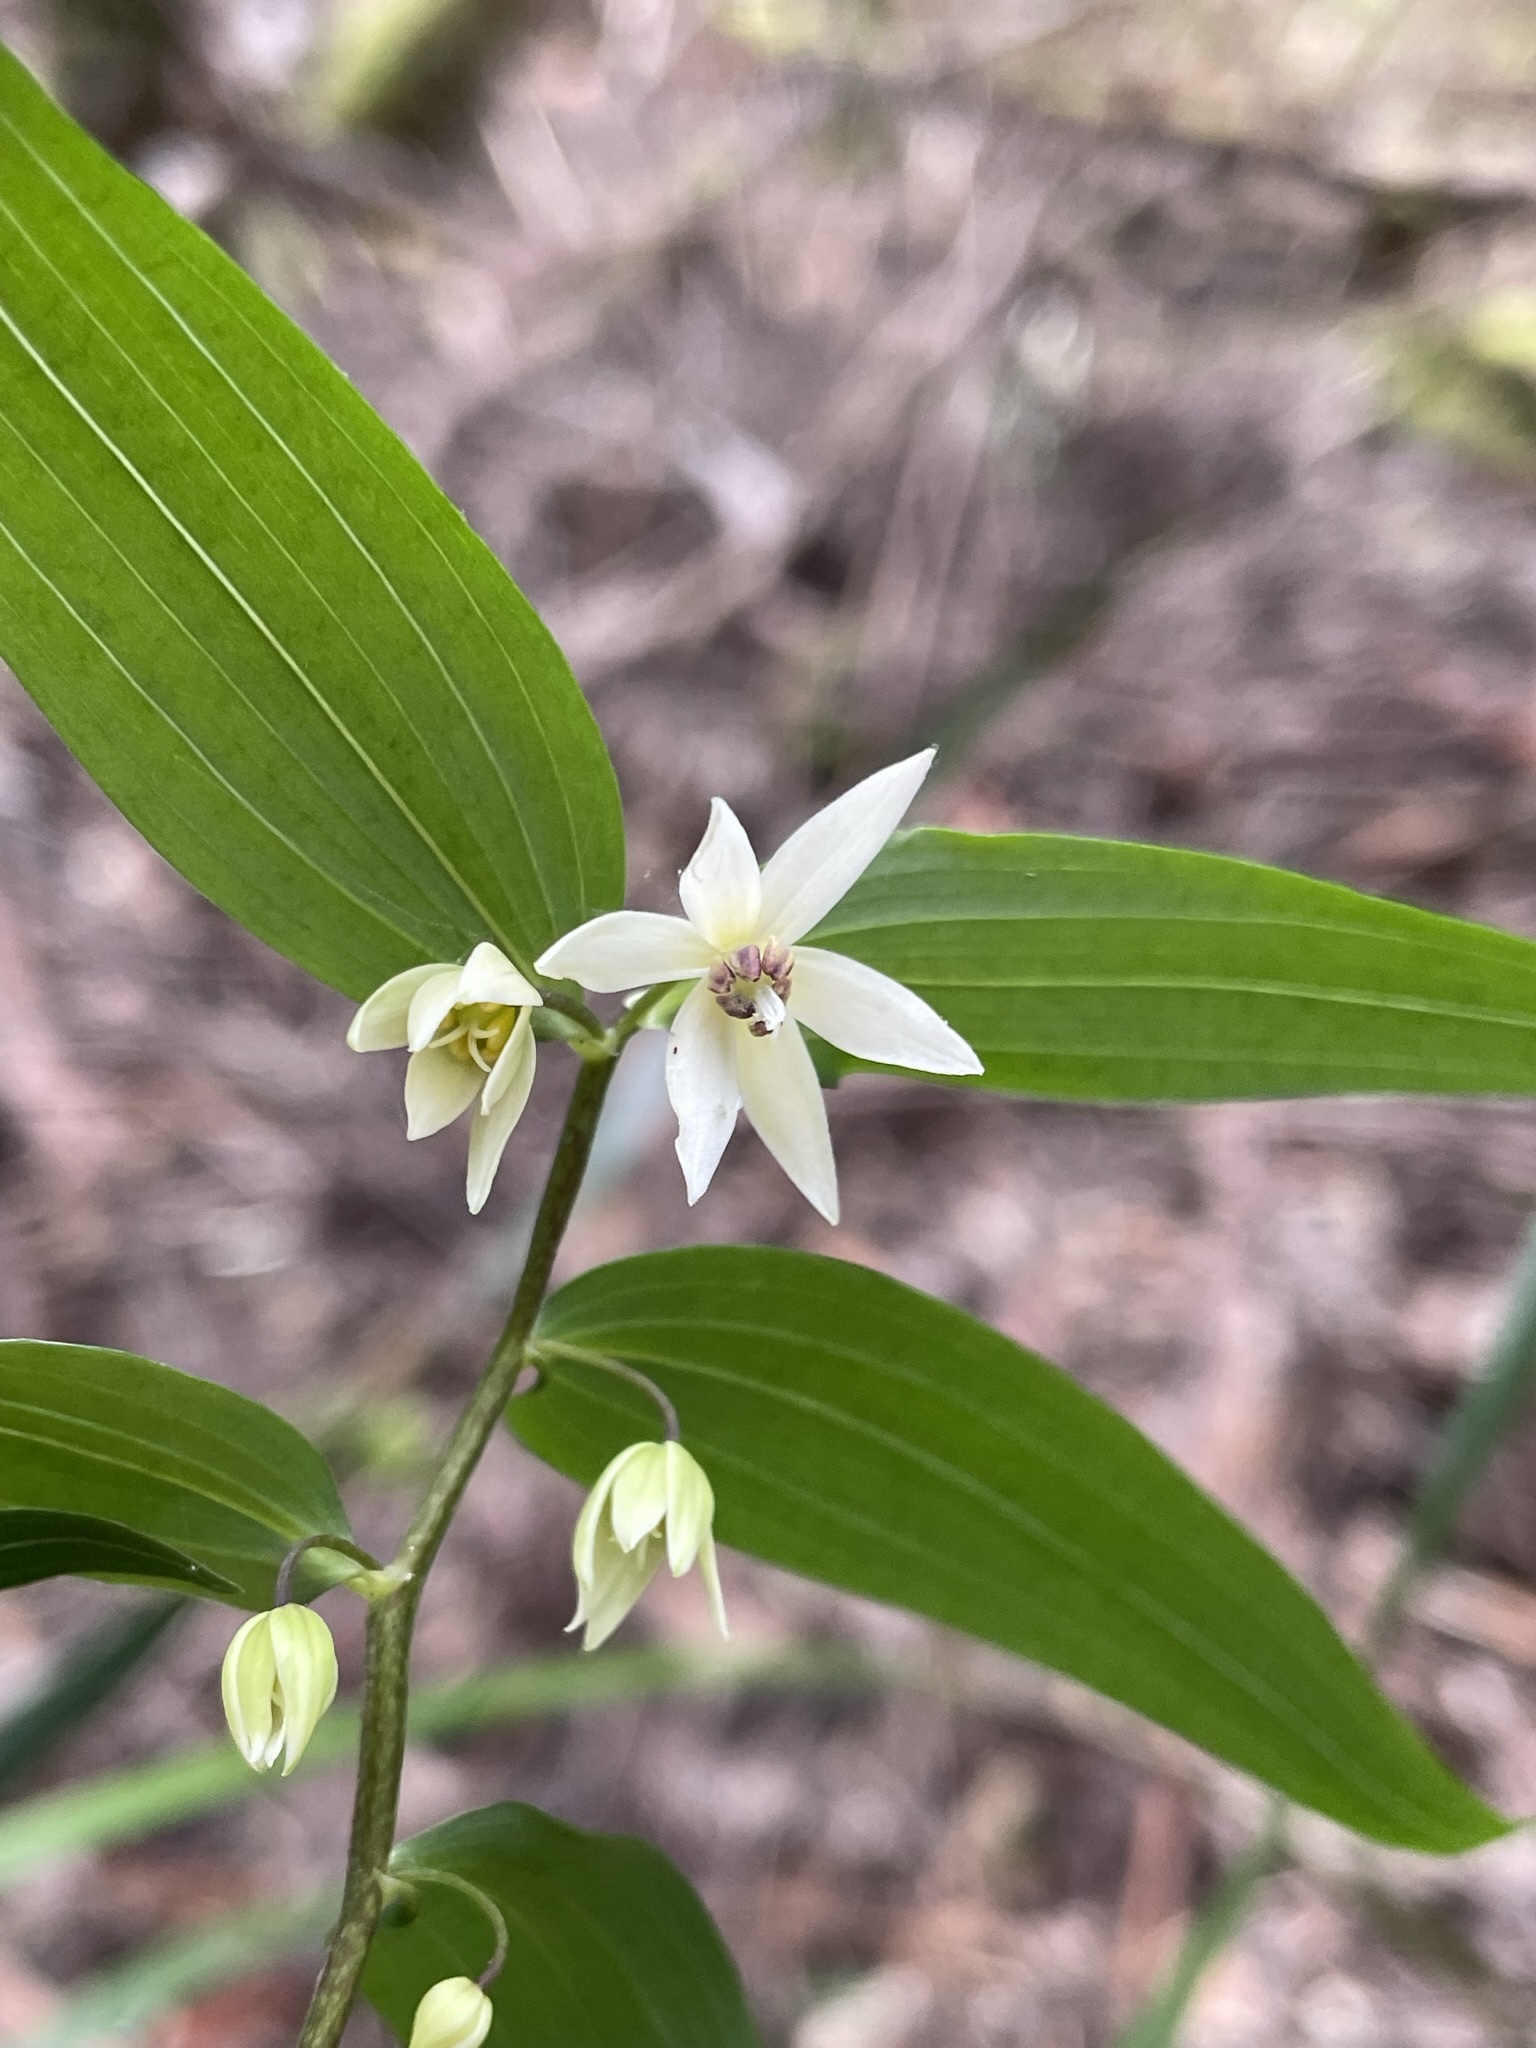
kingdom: Plantae
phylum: Tracheophyta
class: Liliopsida
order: Liliales
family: Alstroemeriaceae
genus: Drymophila
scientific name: Drymophila cyanocarpa
